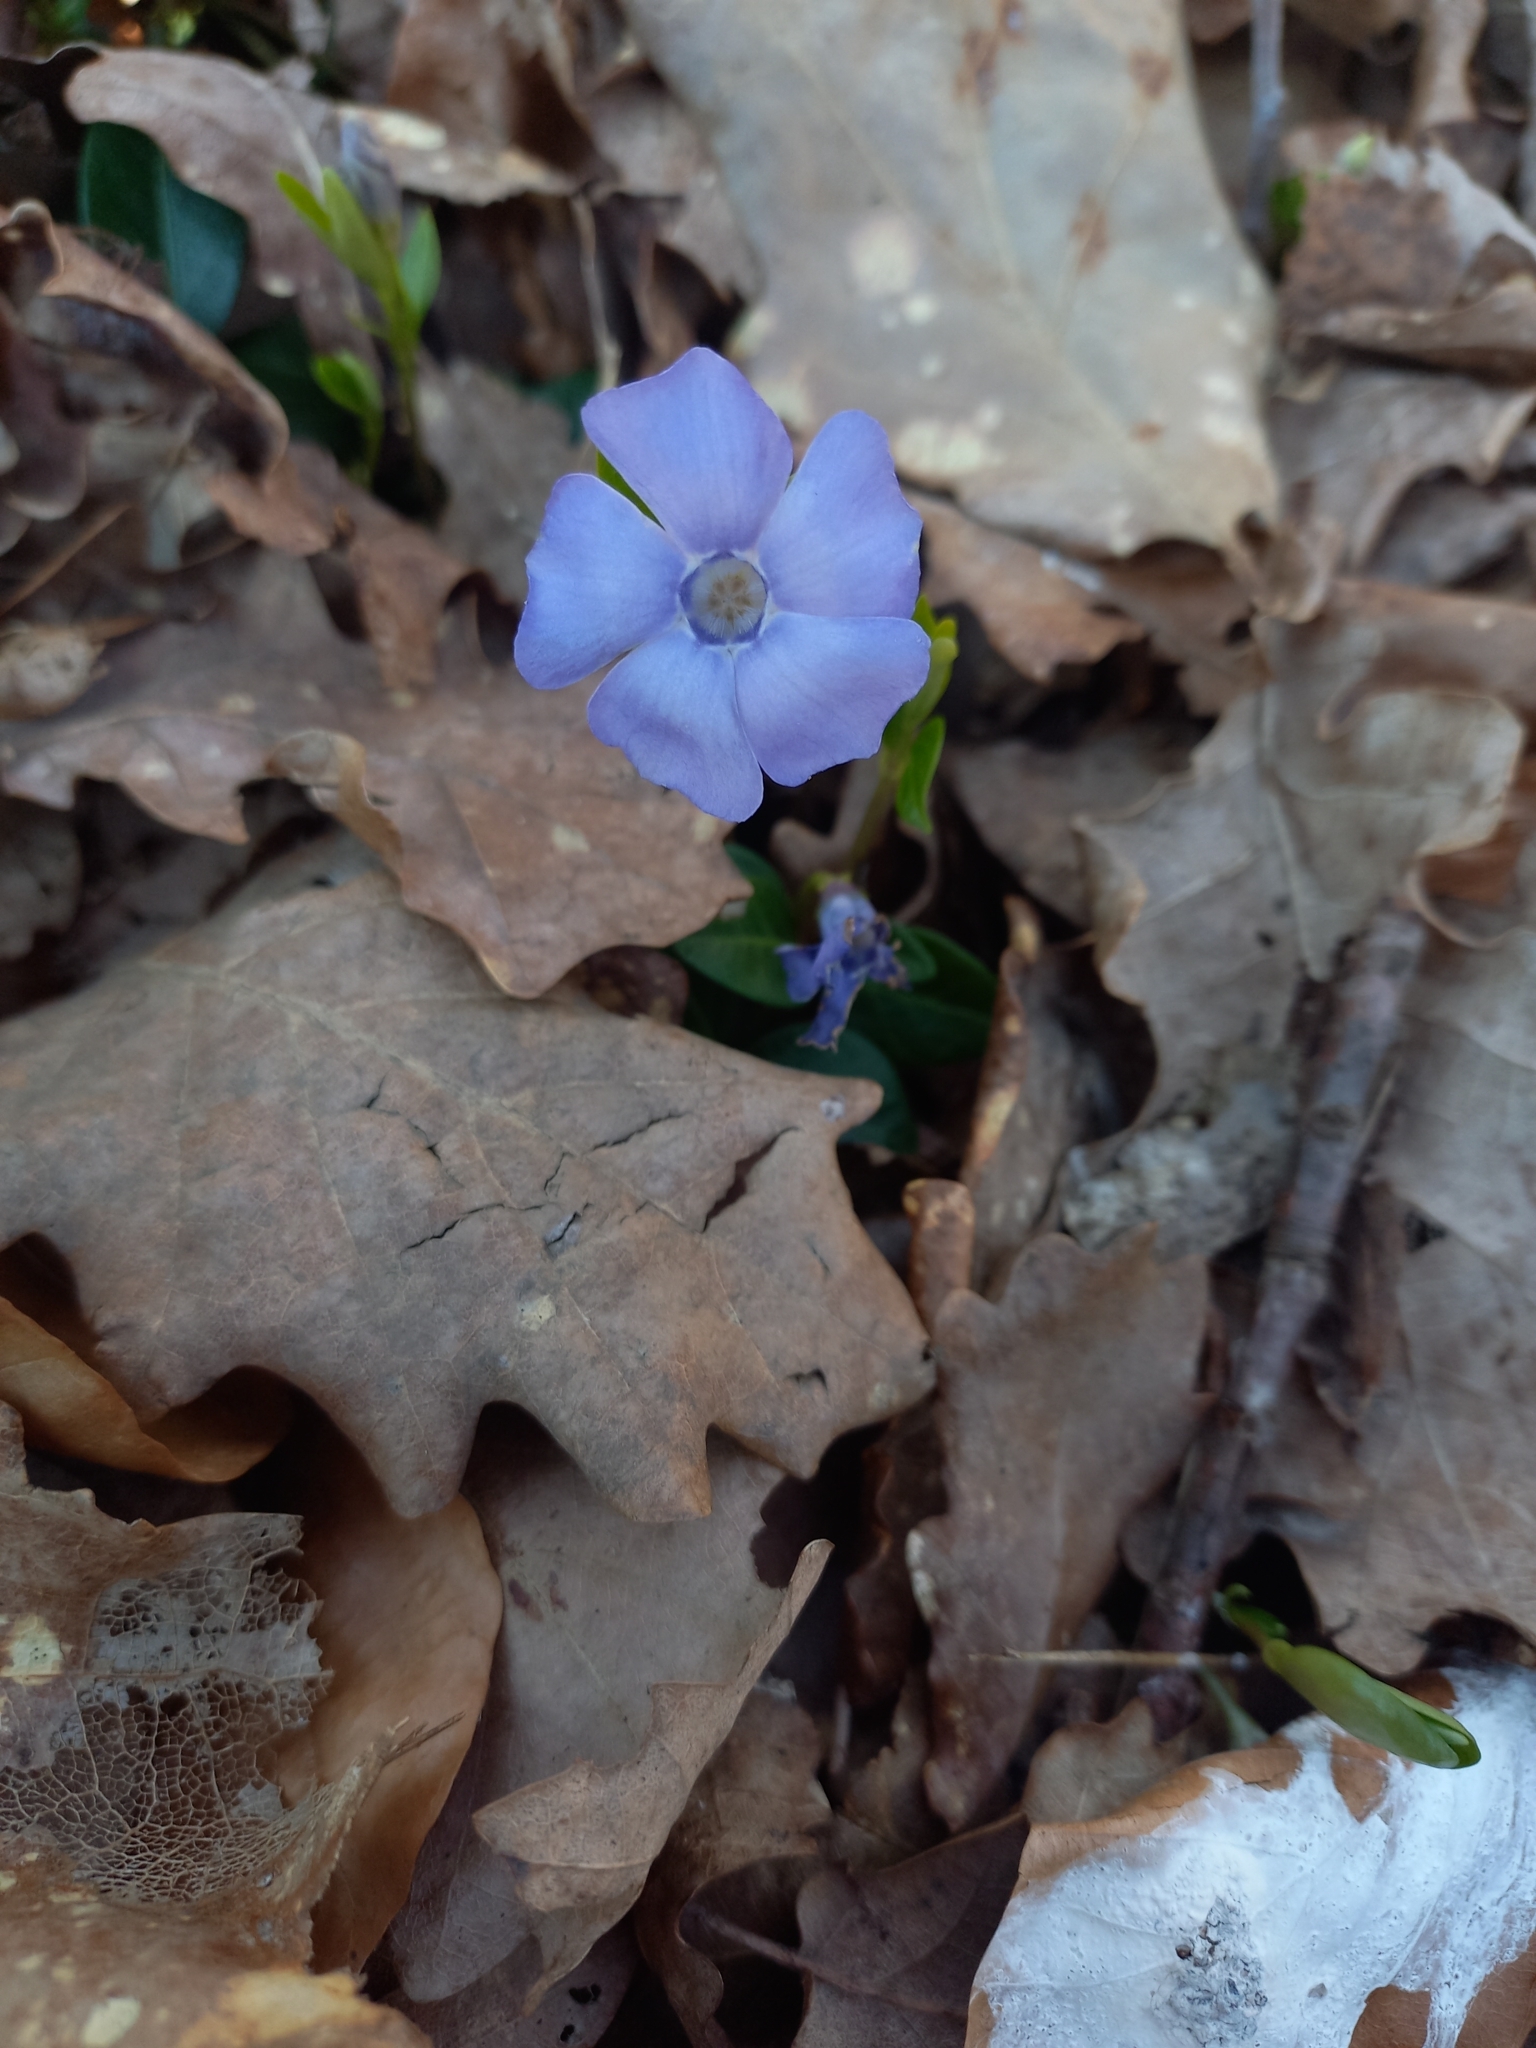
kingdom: Plantae
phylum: Tracheophyta
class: Magnoliopsida
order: Gentianales
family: Apocynaceae
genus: Vinca
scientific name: Vinca minor
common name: Lesser periwinkle
